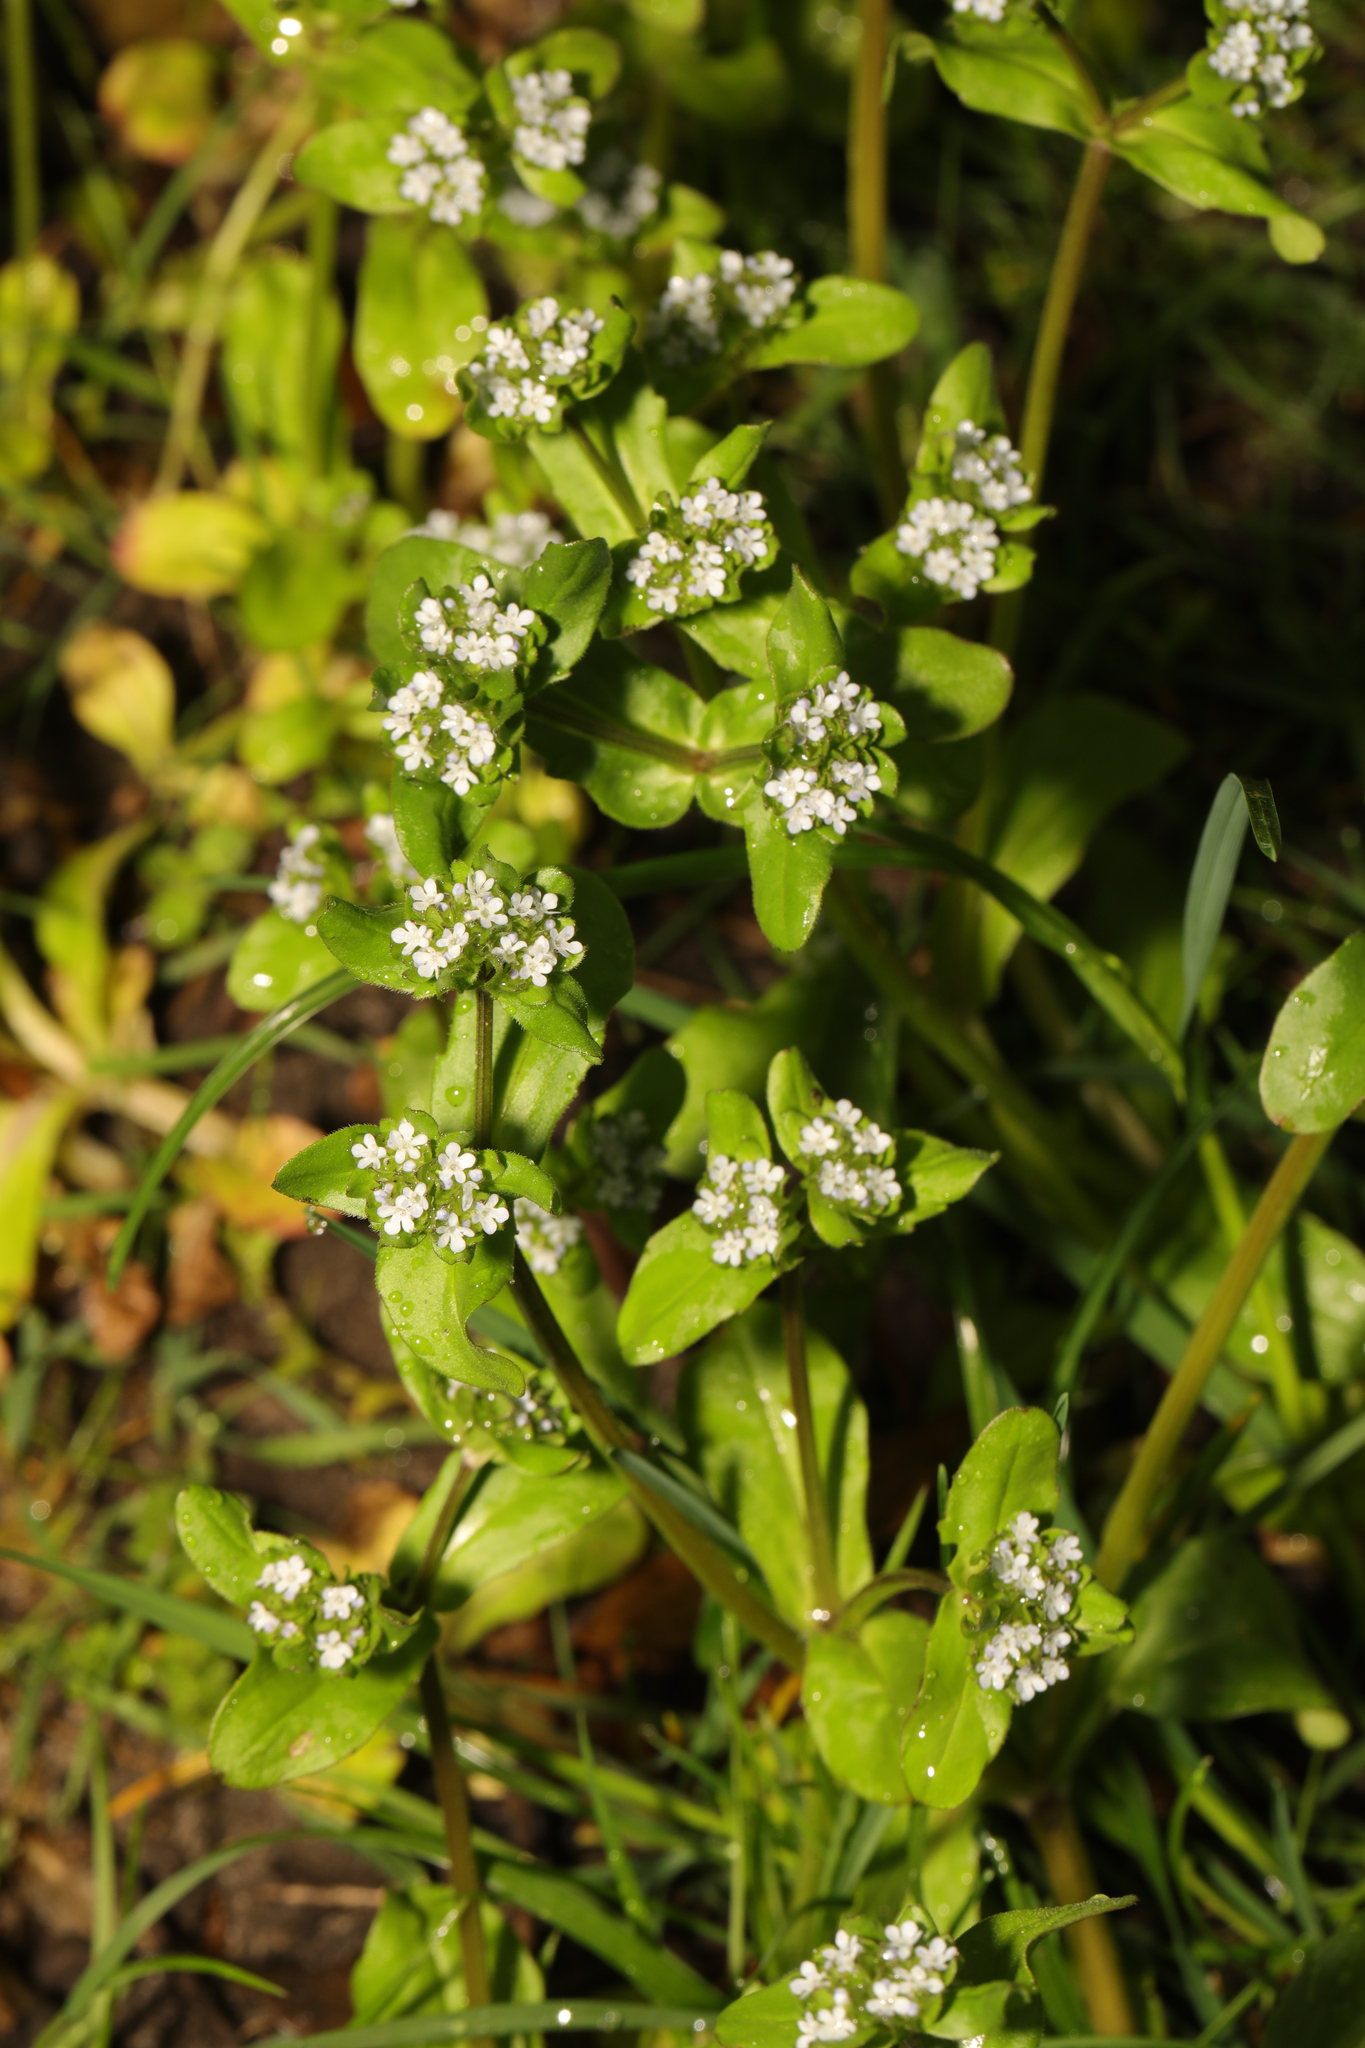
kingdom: Plantae
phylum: Tracheophyta
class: Magnoliopsida
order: Dipsacales
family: Caprifoliaceae
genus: Valerianella
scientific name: Valerianella locusta
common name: Common cornsalad
